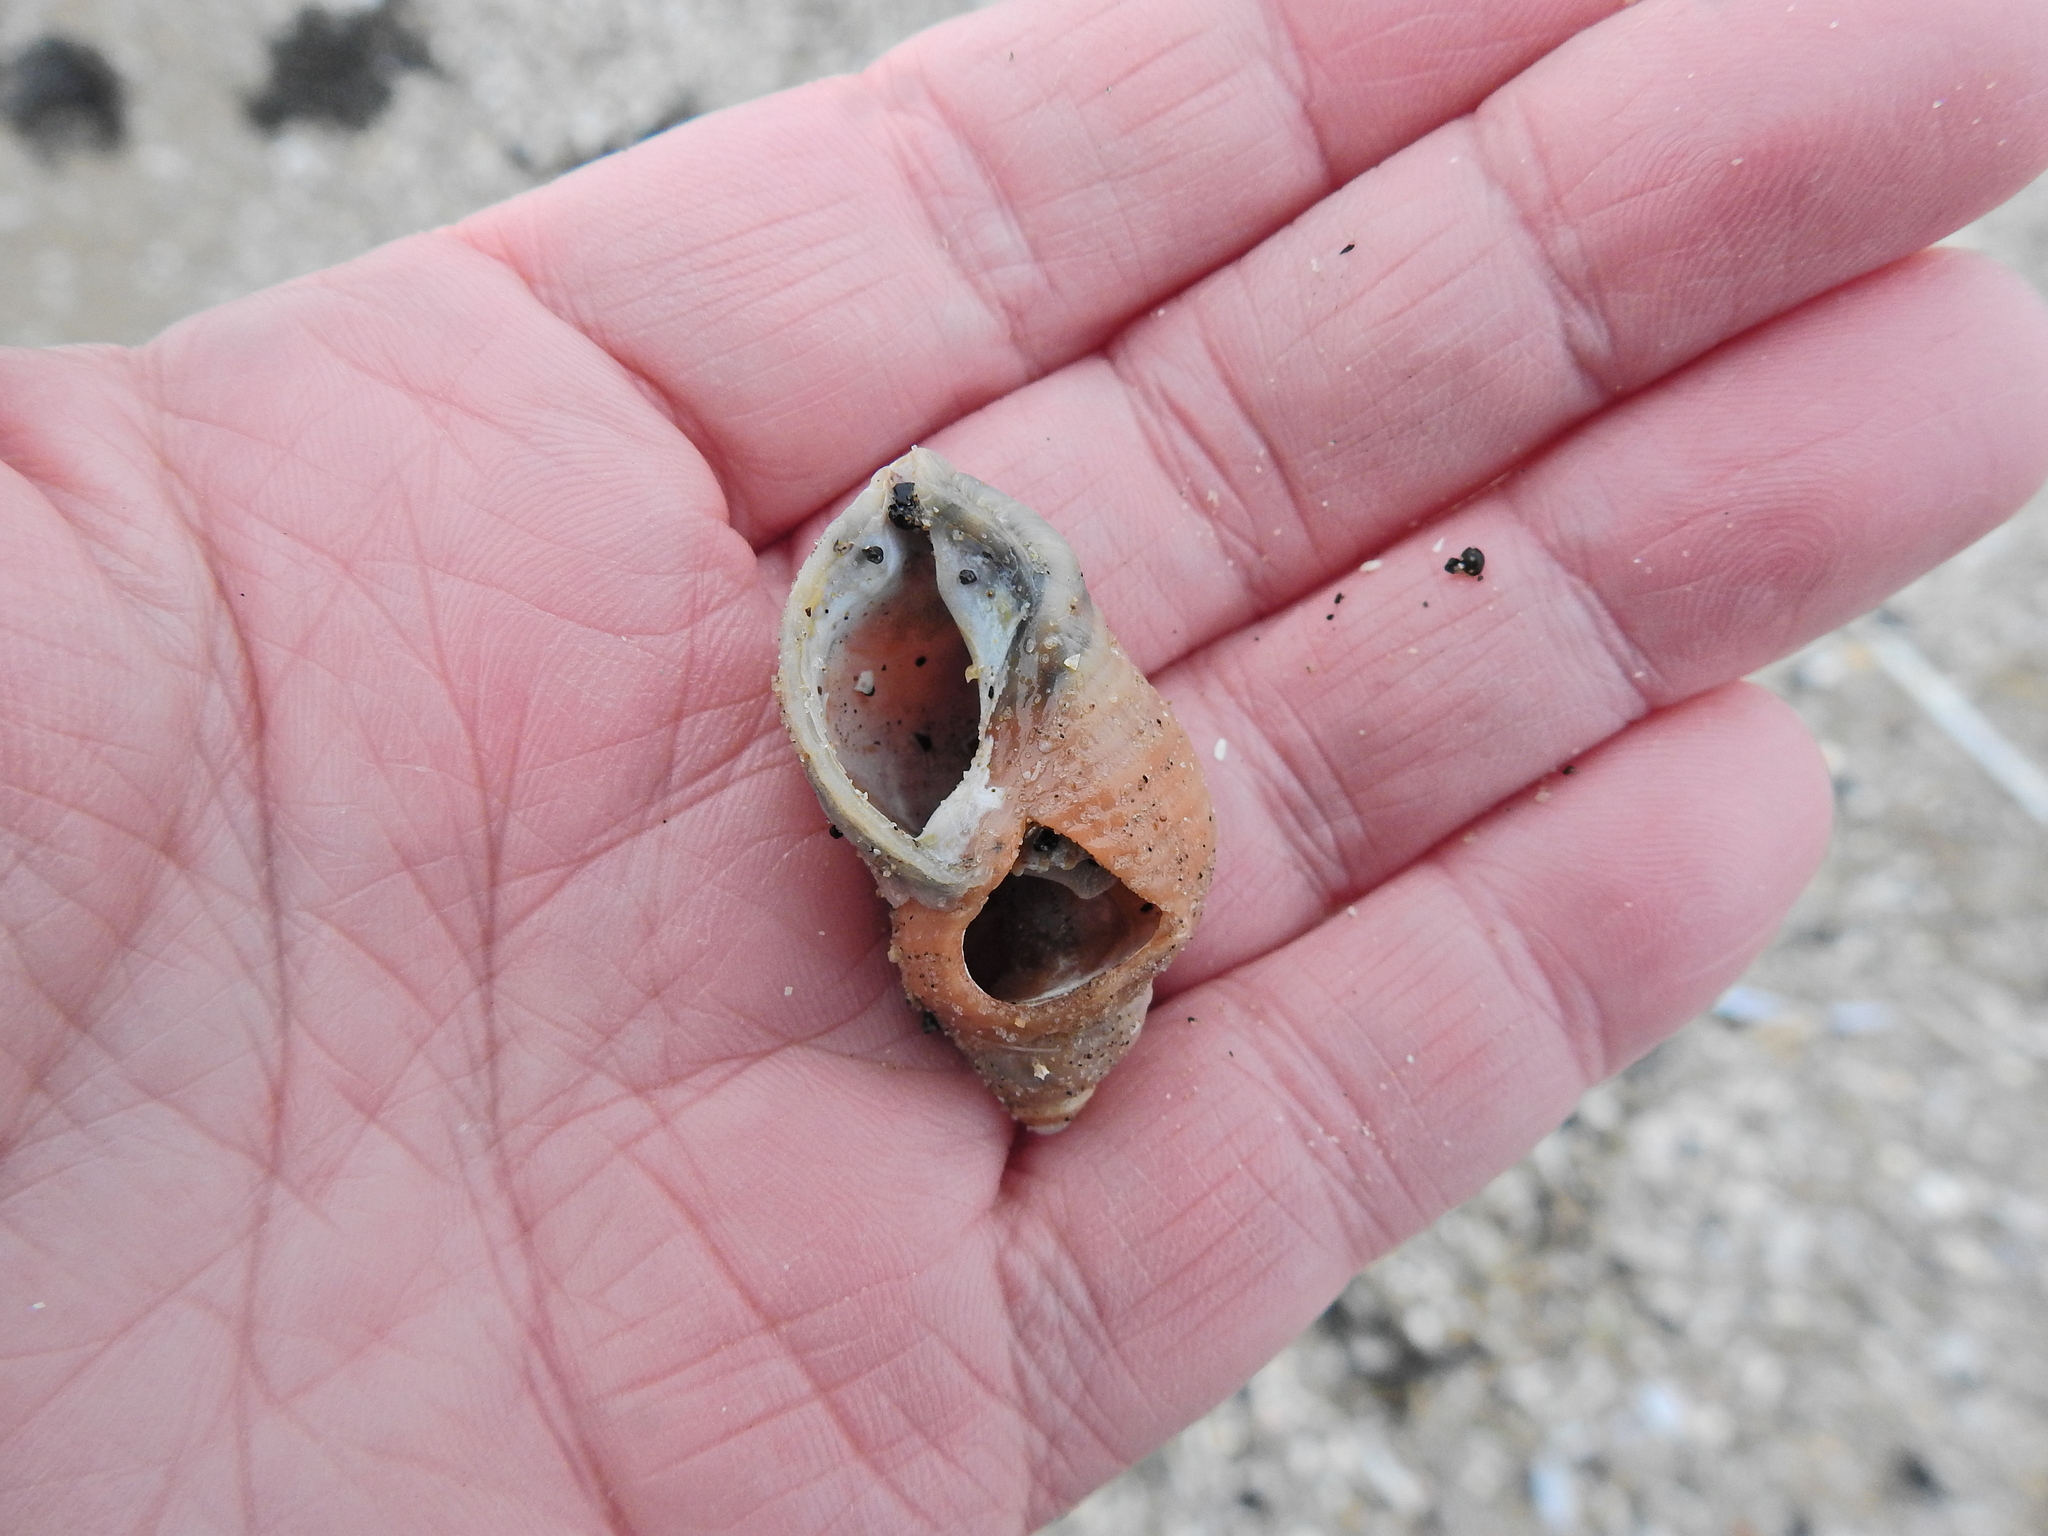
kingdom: Animalia
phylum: Mollusca
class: Gastropoda
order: Neogastropoda
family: Muricidae
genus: Nucella
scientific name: Nucella lapillus
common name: Dog whelk
